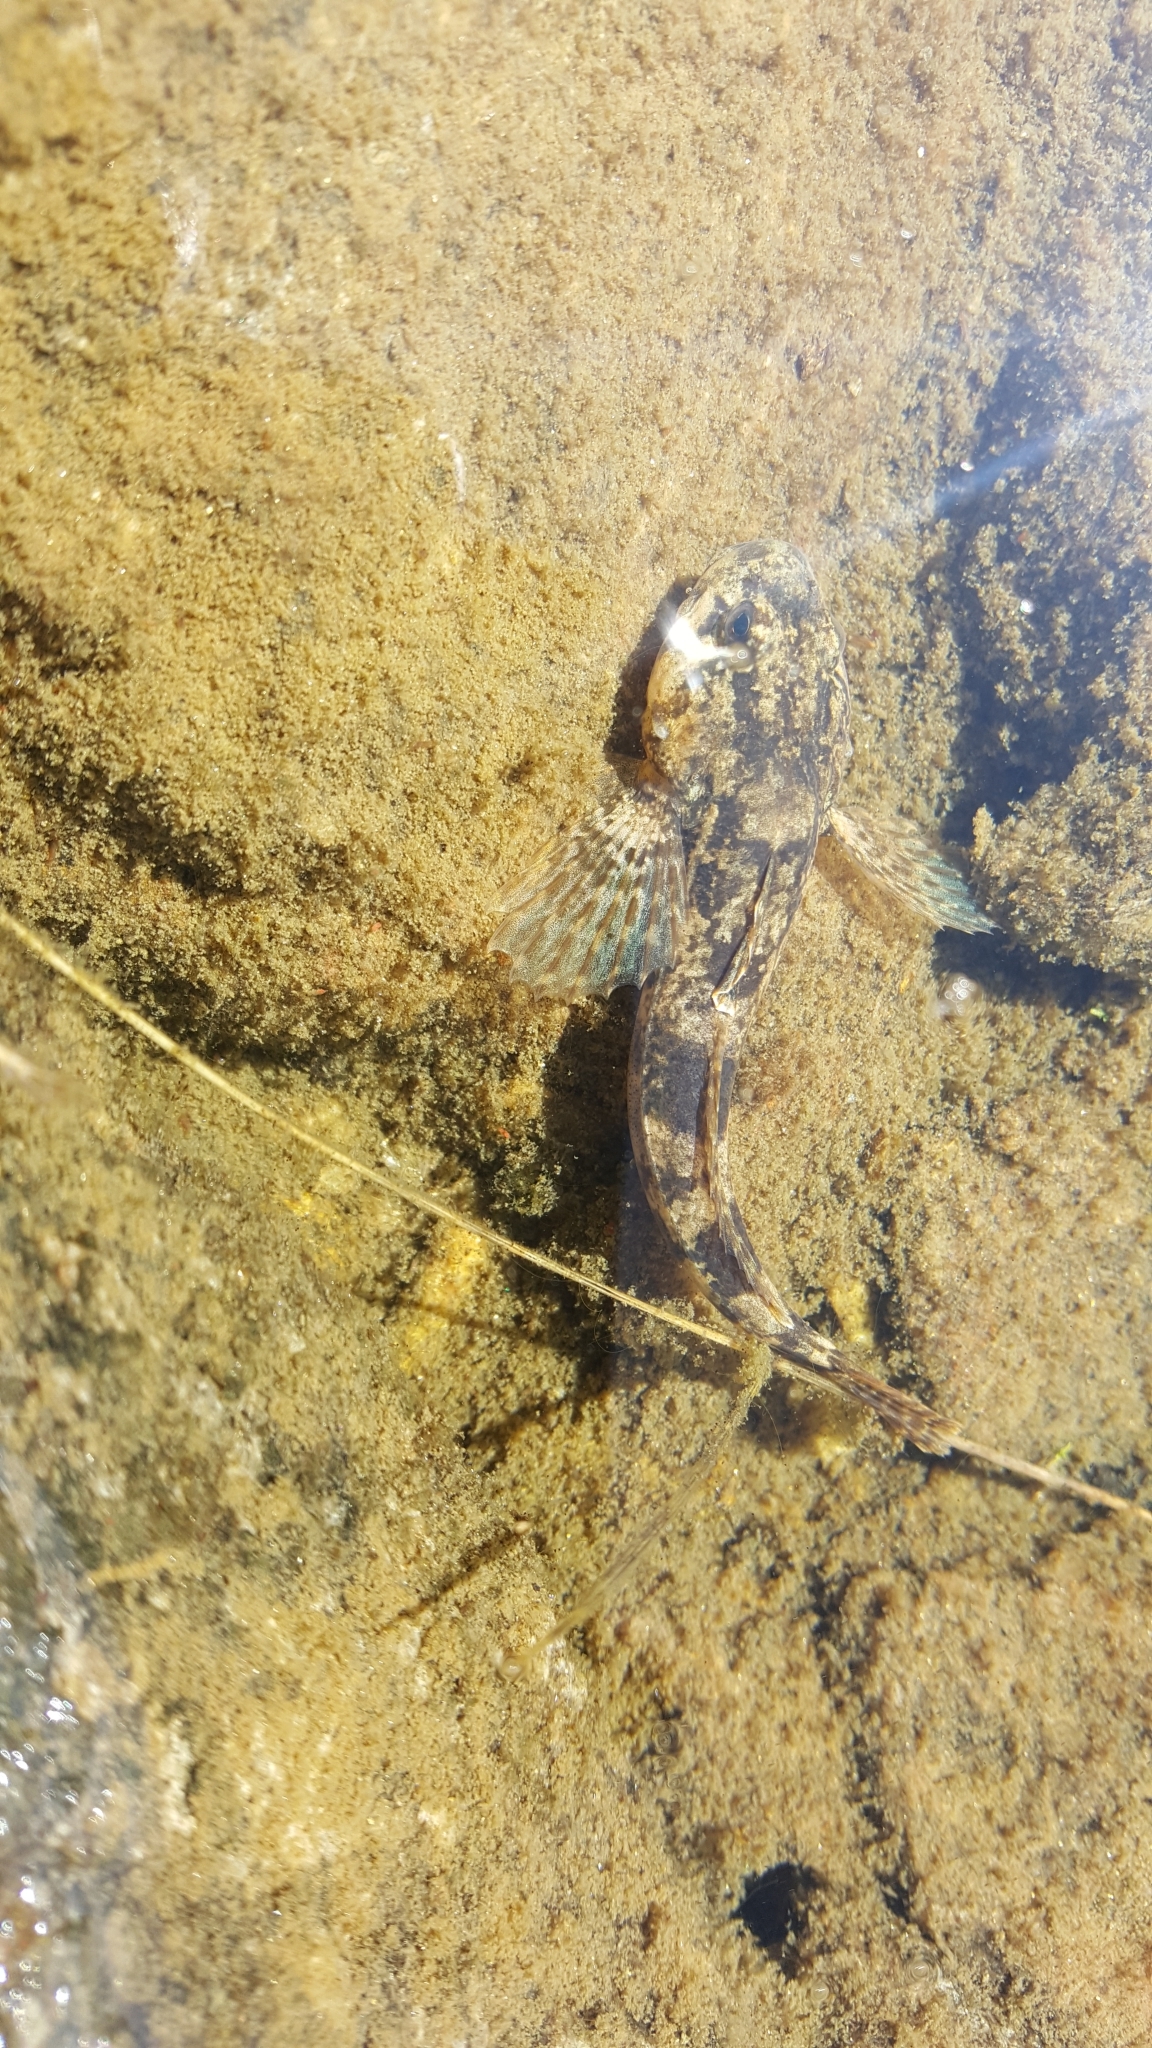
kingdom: Animalia
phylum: Chordata
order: Scorpaeniformes
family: Cottidae
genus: Cottus
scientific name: Cottus gobio
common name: Bullhead
